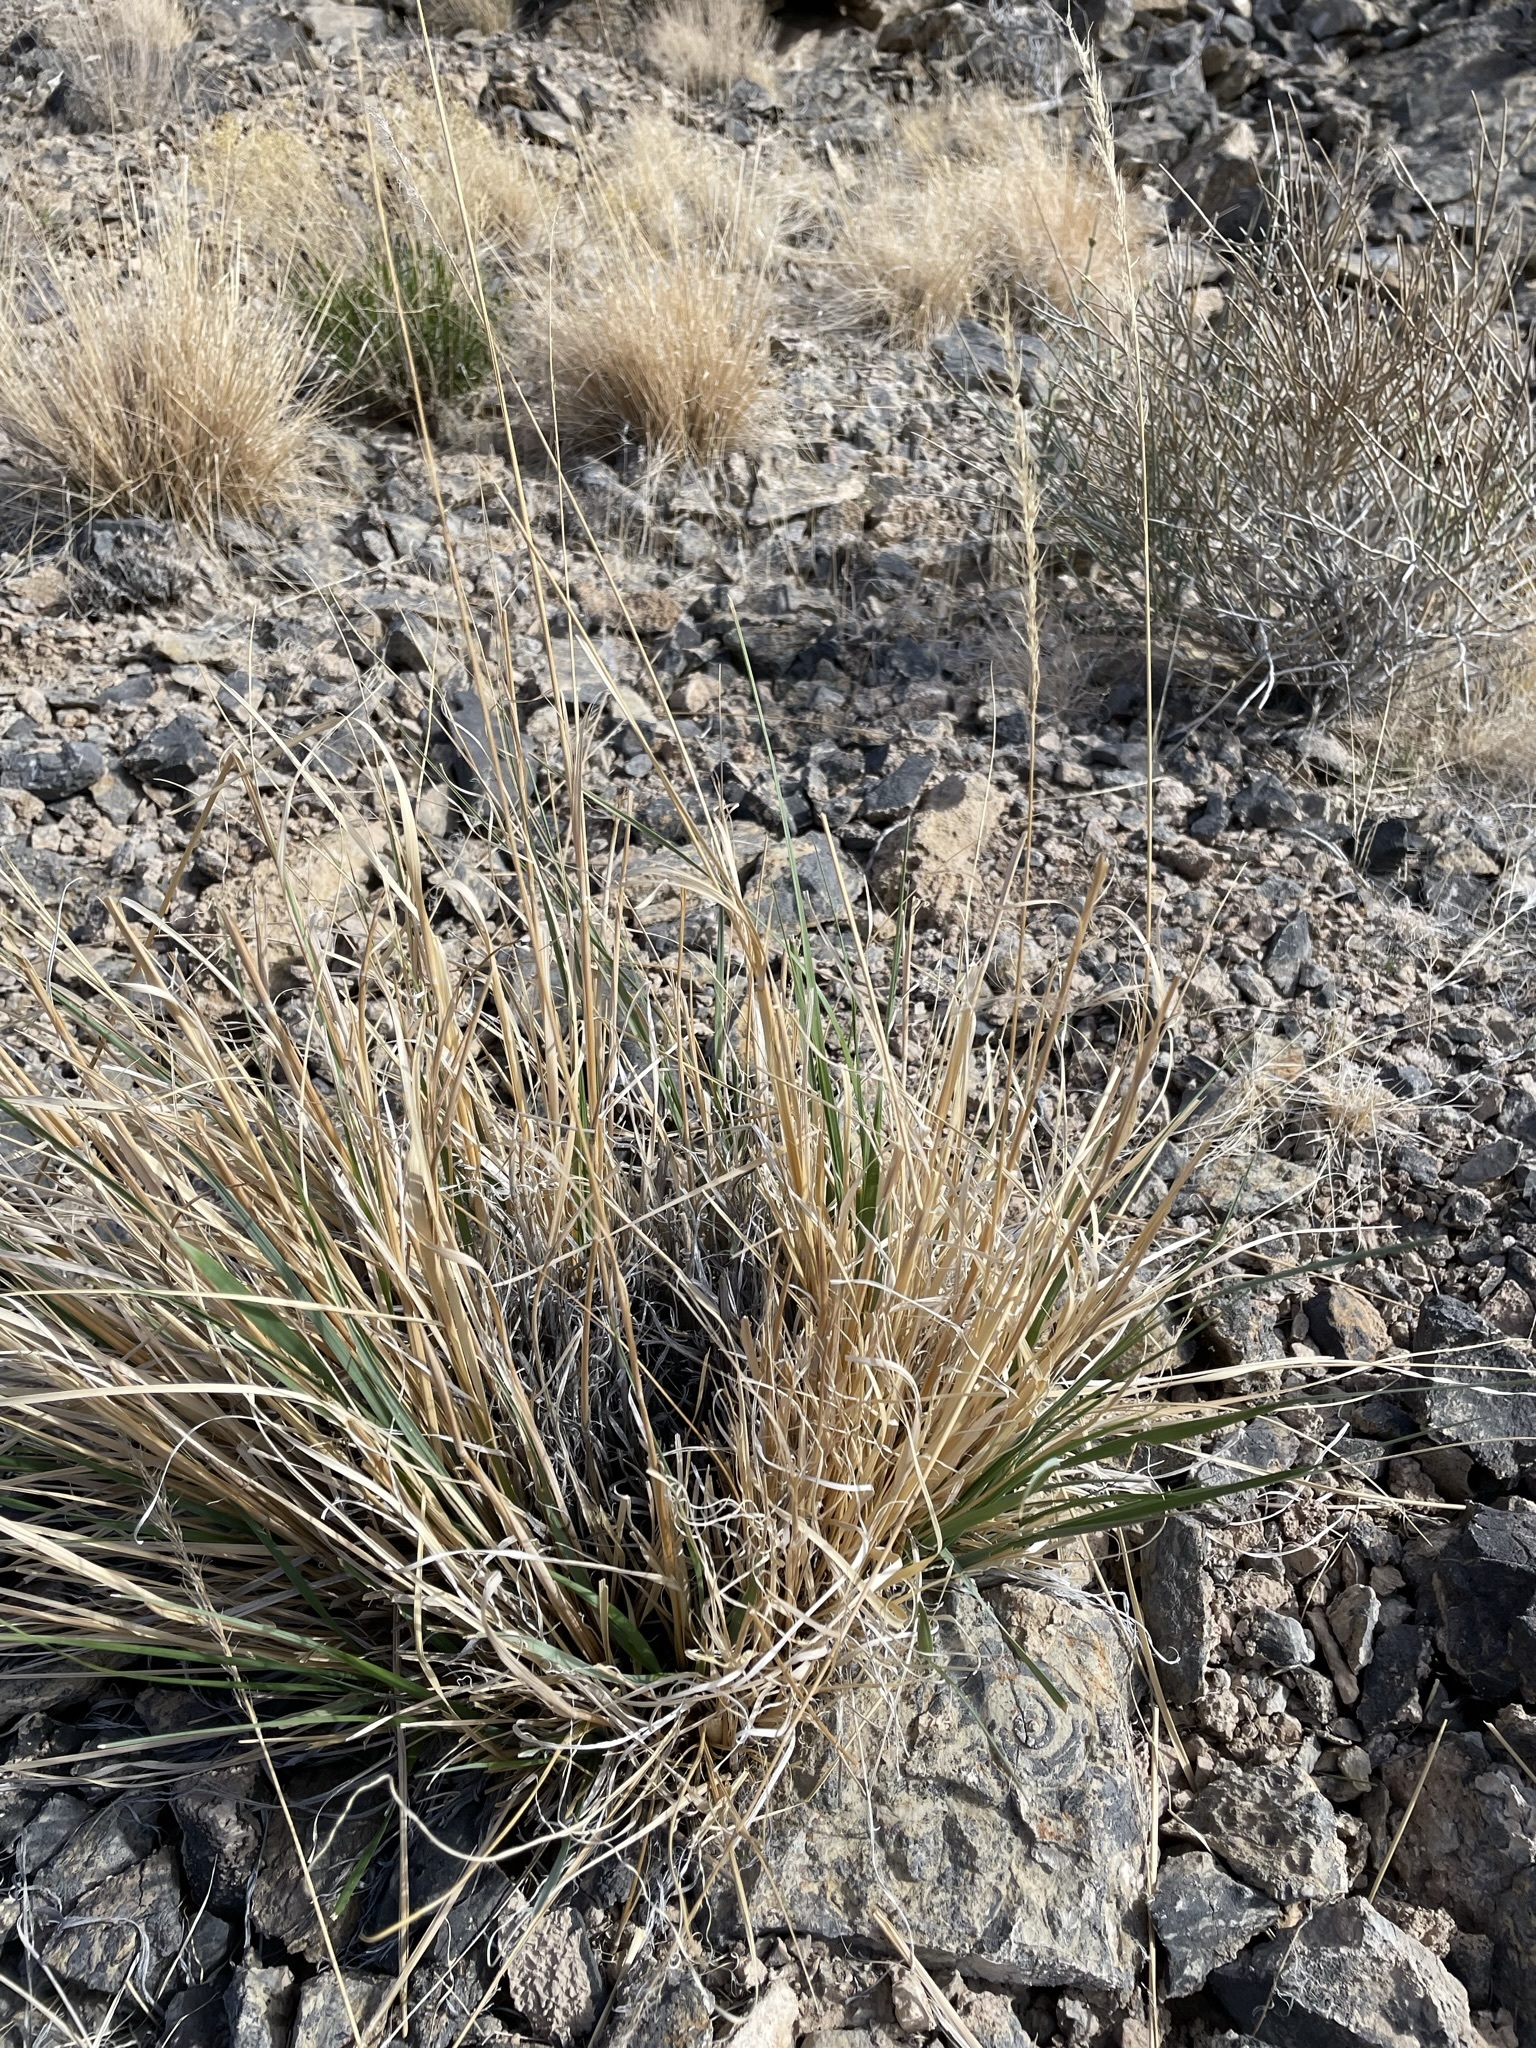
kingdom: Plantae
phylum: Tracheophyta
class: Liliopsida
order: Poales
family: Poaceae
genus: Eriocoma
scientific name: Eriocoma parishii
